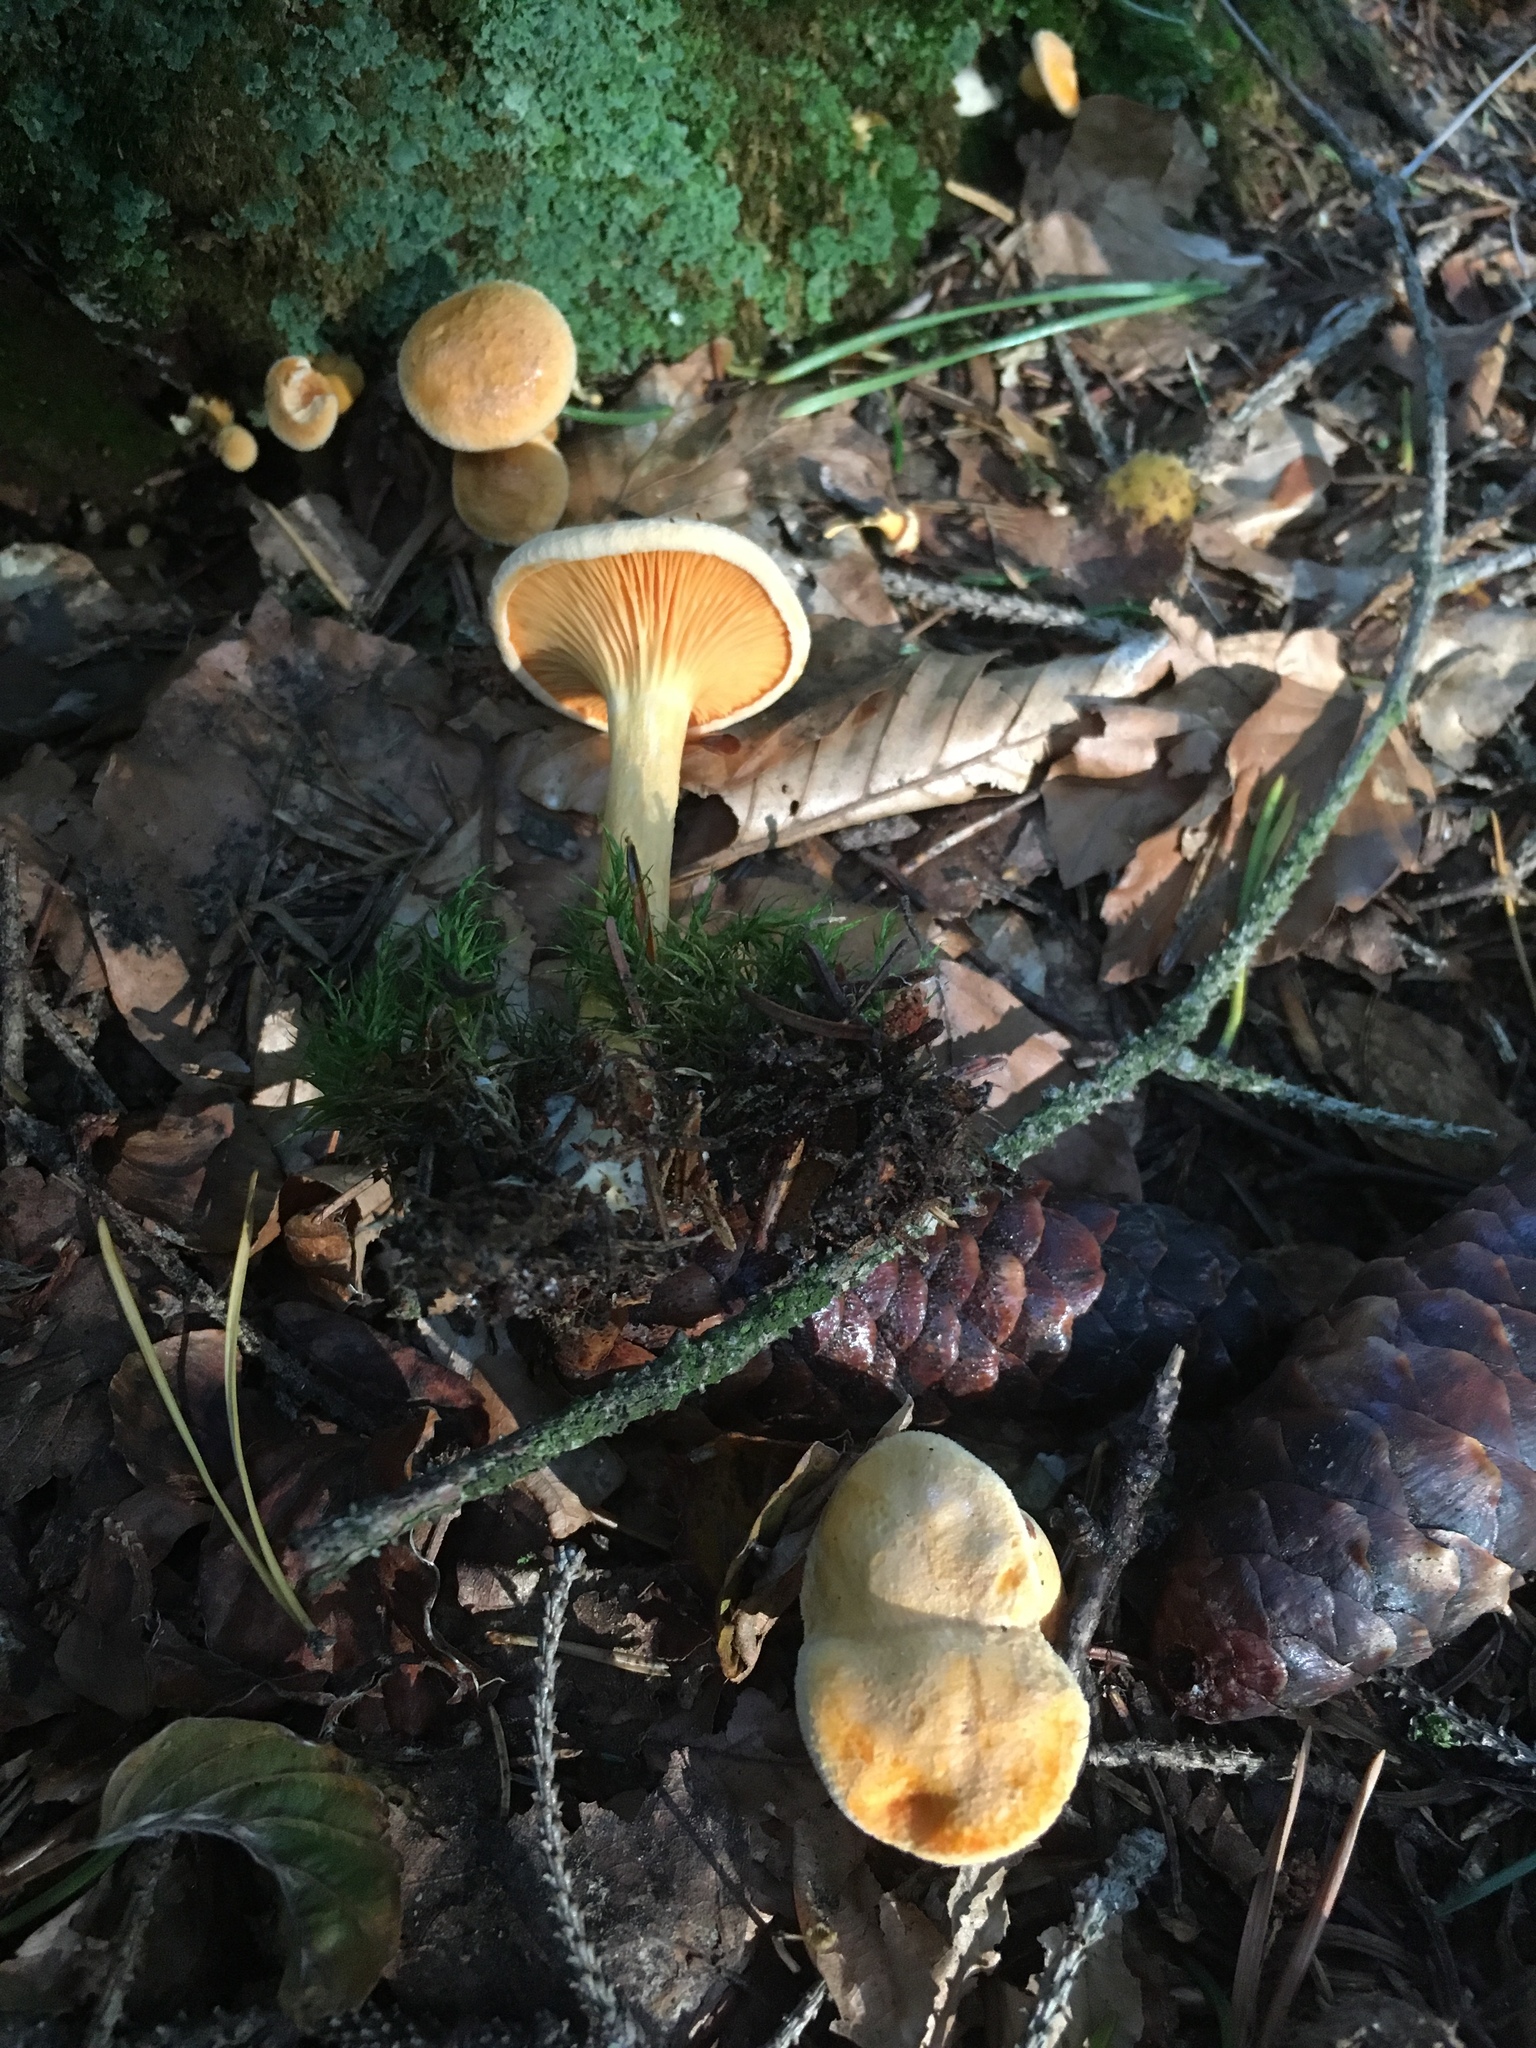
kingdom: Fungi
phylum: Basidiomycota
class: Agaricomycetes
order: Boletales
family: Hygrophoropsidaceae
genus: Hygrophoropsis
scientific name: Hygrophoropsis aurantiaca
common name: False chanterelle
